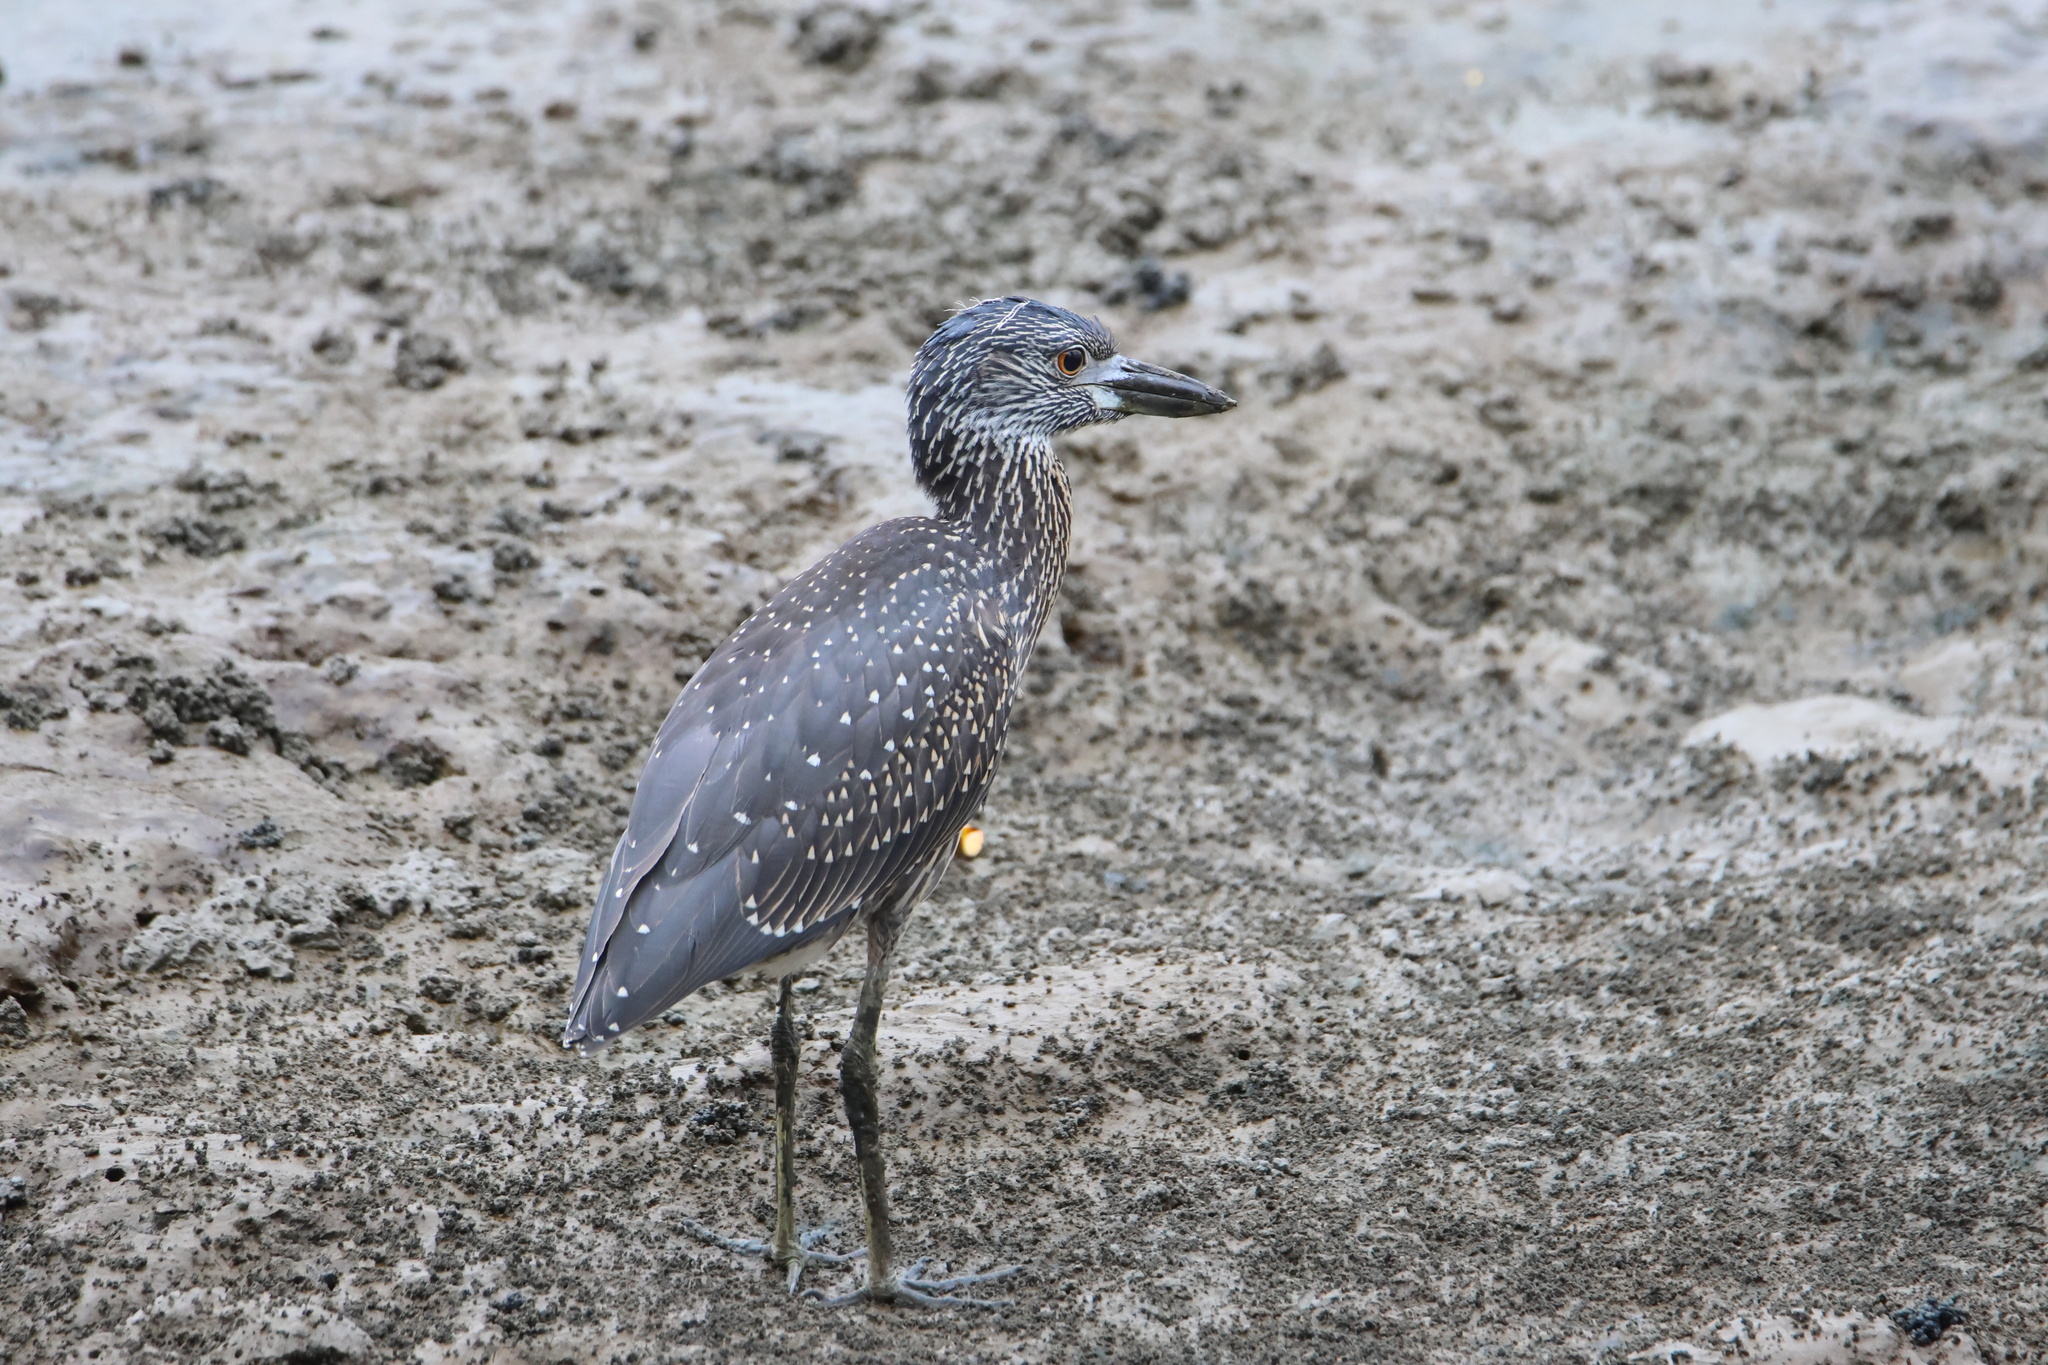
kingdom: Animalia
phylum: Chordata
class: Aves
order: Pelecaniformes
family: Ardeidae
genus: Nyctanassa
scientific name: Nyctanassa violacea
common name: Yellow-crowned night heron
